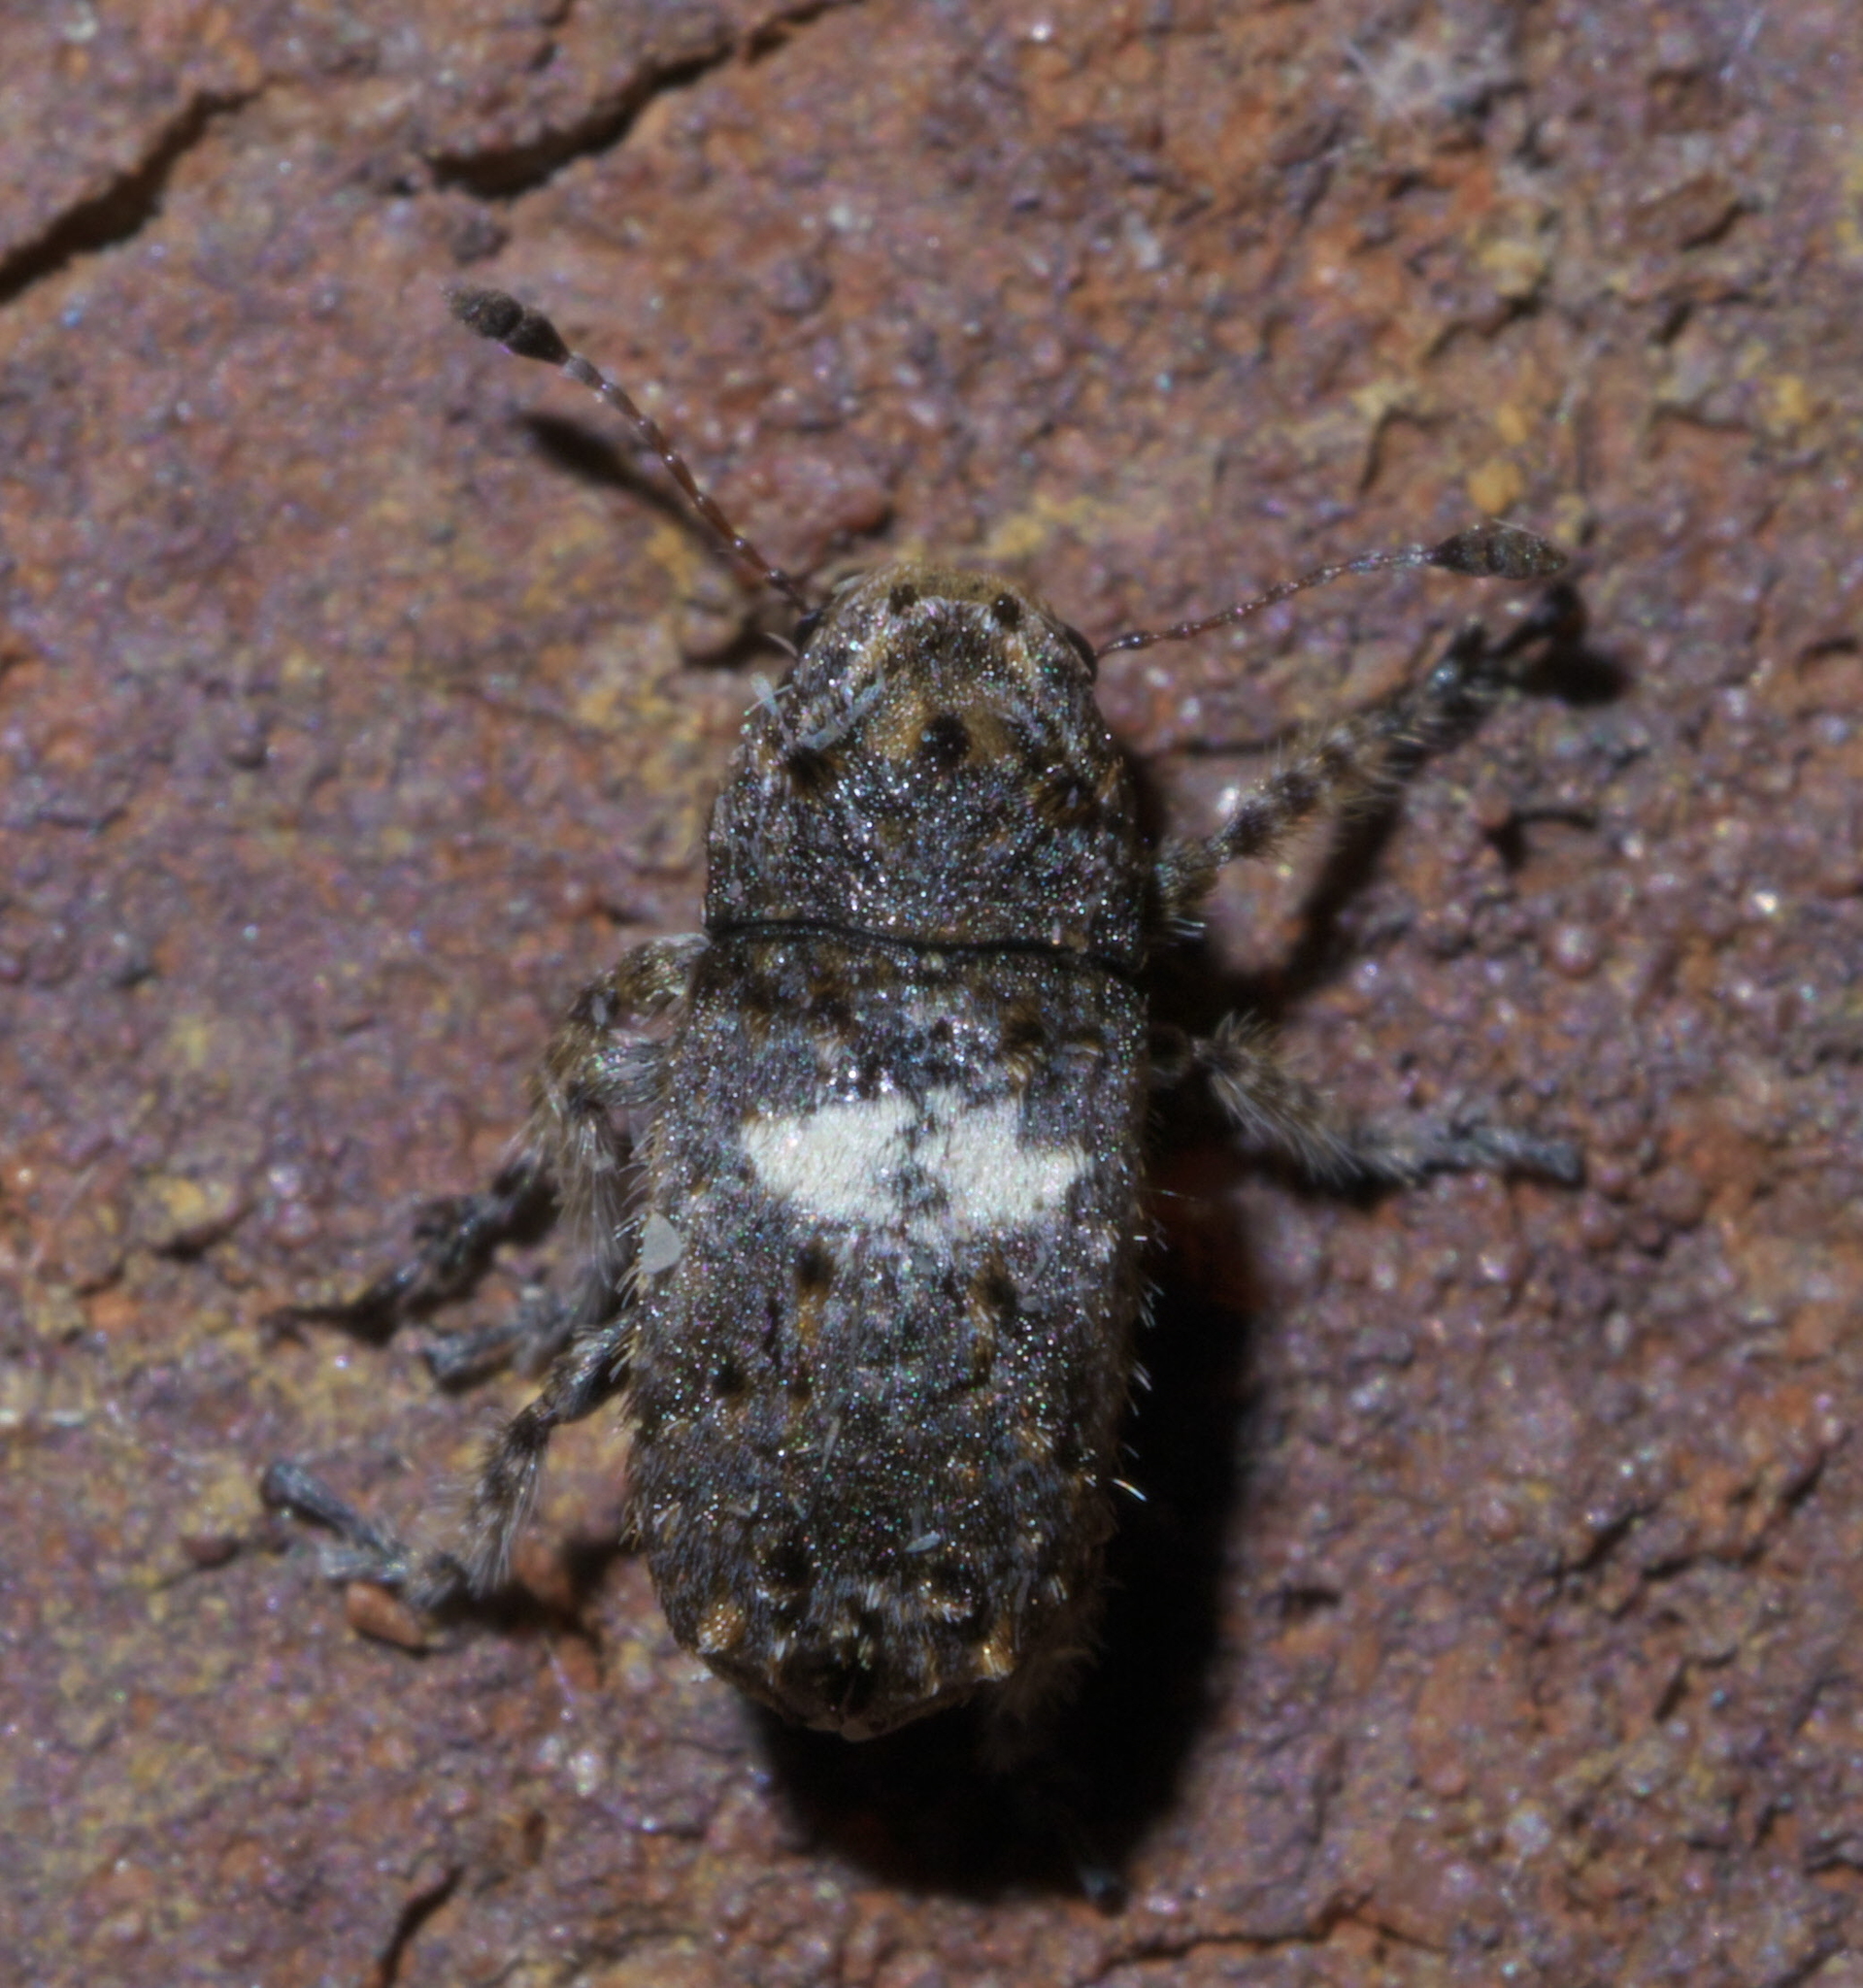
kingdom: Animalia
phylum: Arthropoda
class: Insecta
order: Coleoptera
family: Anthribidae
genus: Toxonotus
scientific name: Toxonotus cornutus
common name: Fungus weevil
